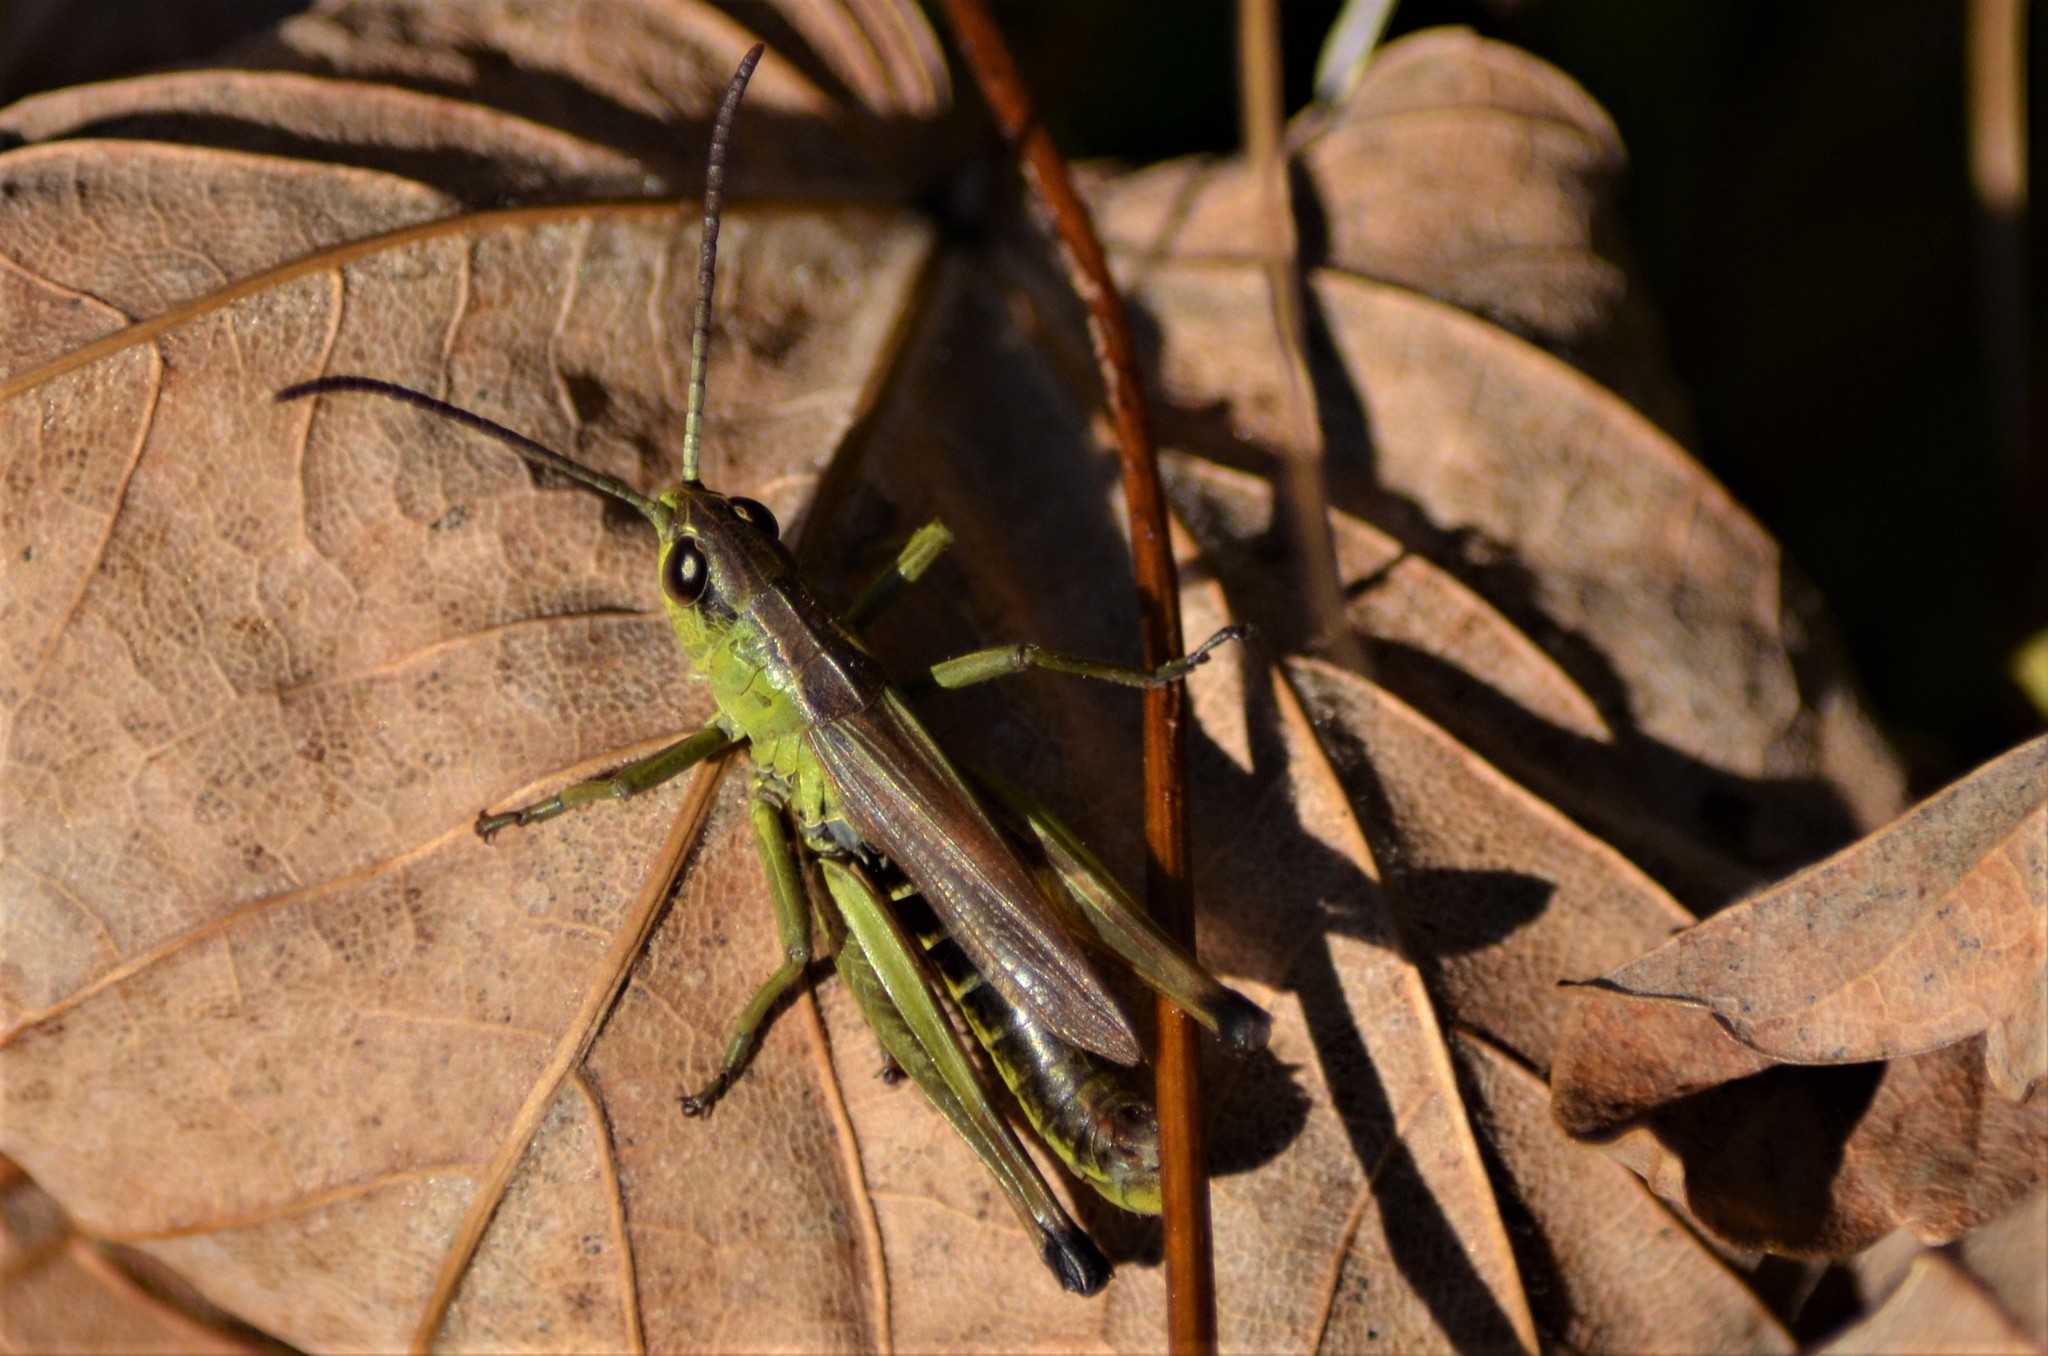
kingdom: Animalia
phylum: Arthropoda
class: Insecta
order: Orthoptera
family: Acrididae
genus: Pseudochorthippus
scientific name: Pseudochorthippus parallelus
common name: Meadow grasshopper
